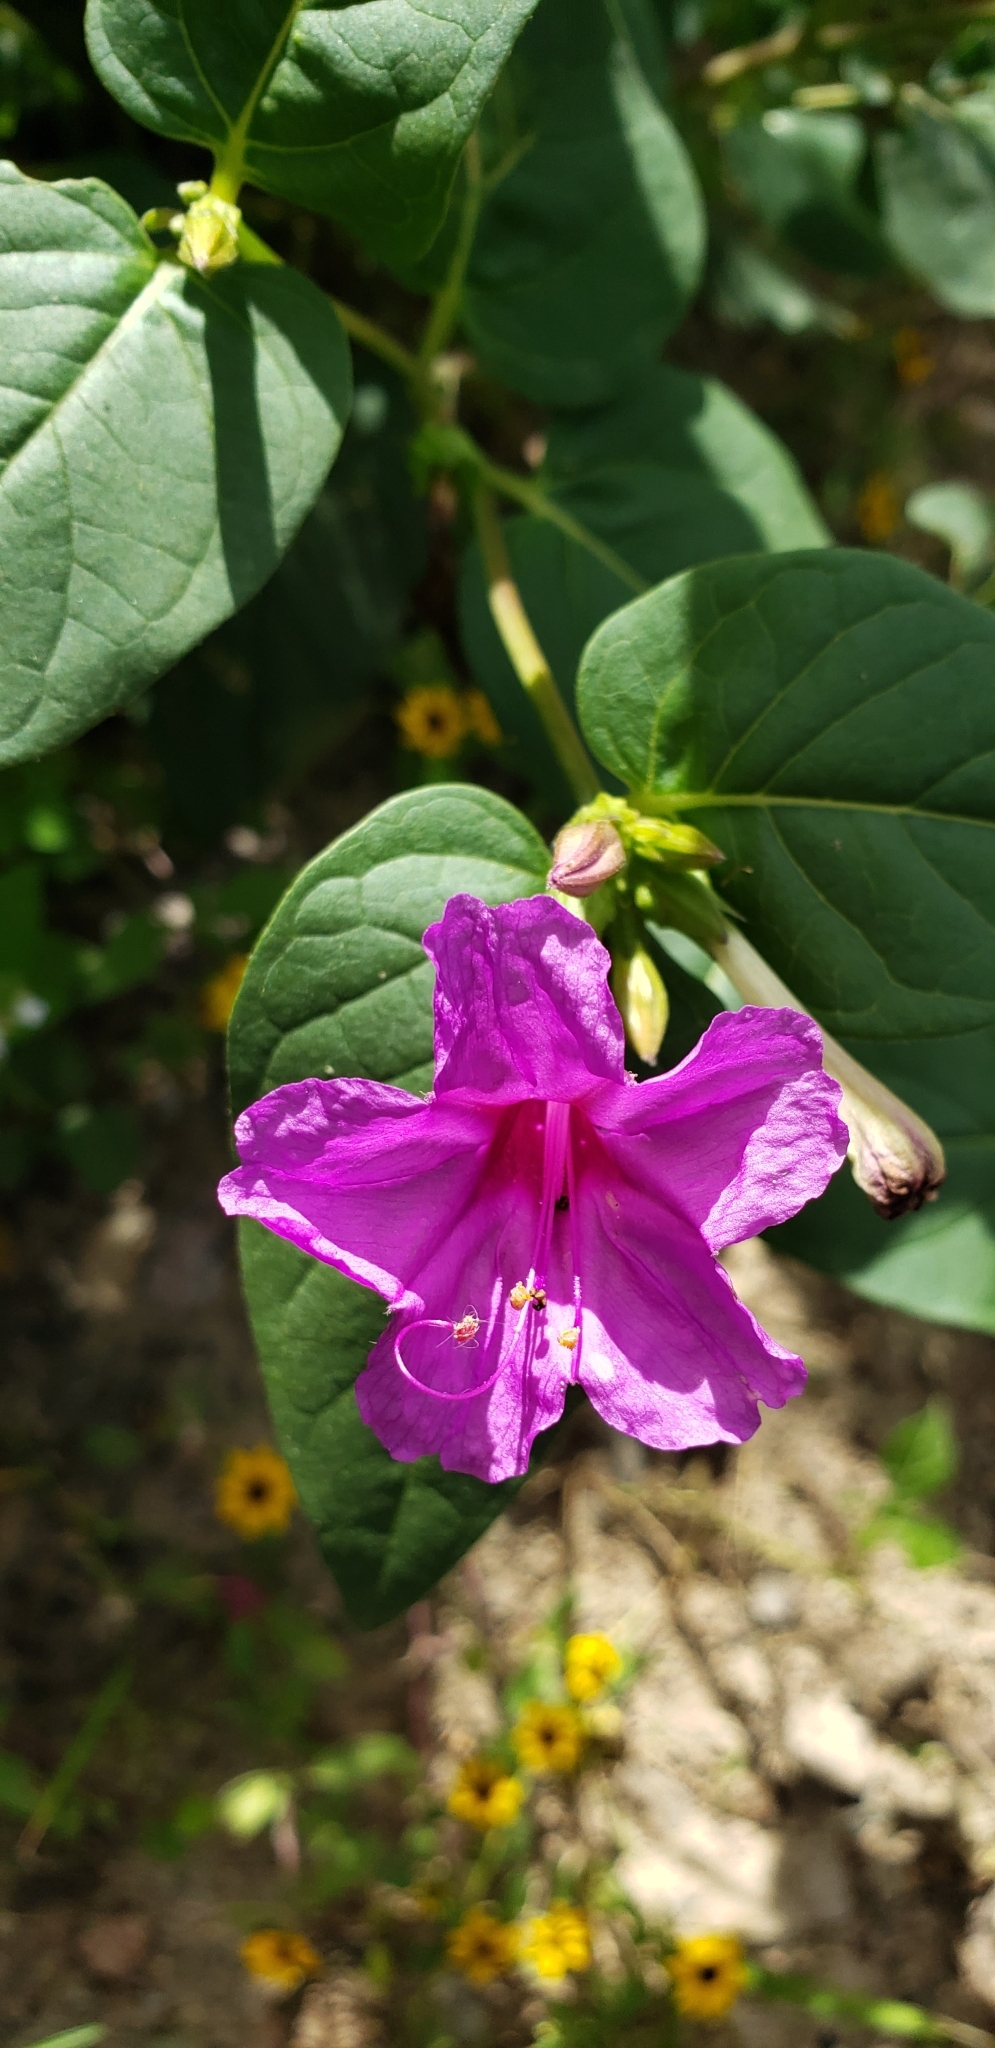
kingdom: Plantae
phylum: Tracheophyta
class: Magnoliopsida
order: Caryophyllales
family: Nyctaginaceae
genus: Mirabilis
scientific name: Mirabilis jalapa
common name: Marvel-of-peru
